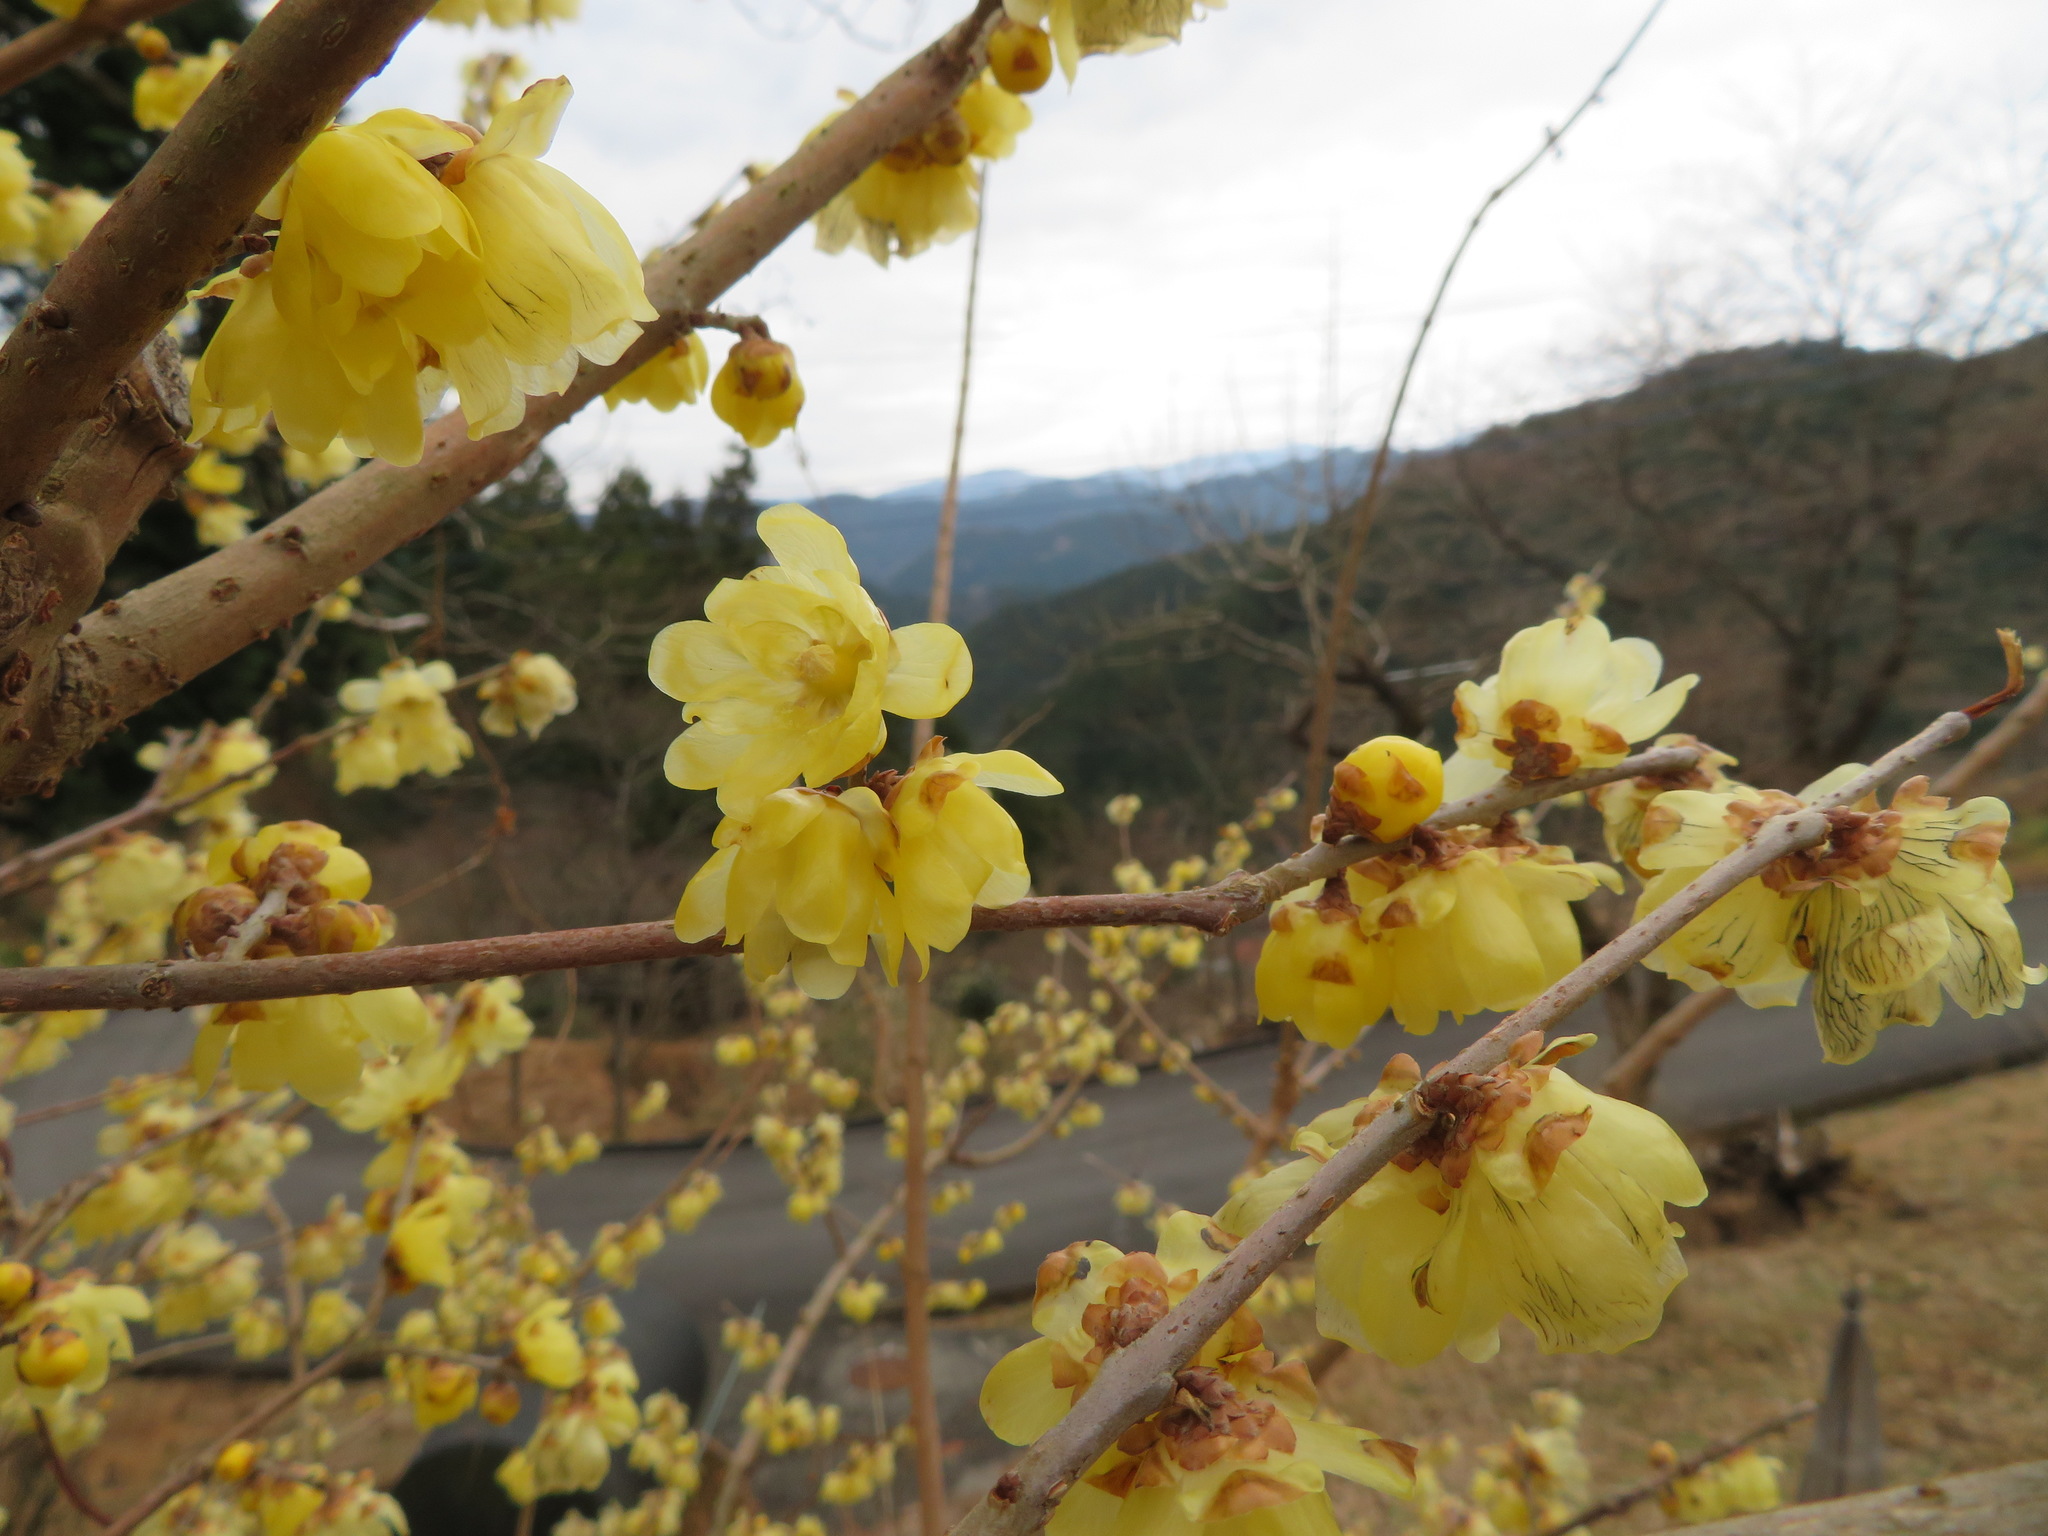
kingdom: Plantae
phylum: Tracheophyta
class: Magnoliopsida
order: Laurales
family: Calycanthaceae
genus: Chimonanthus
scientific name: Chimonanthus praecox
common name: Wintersweet
